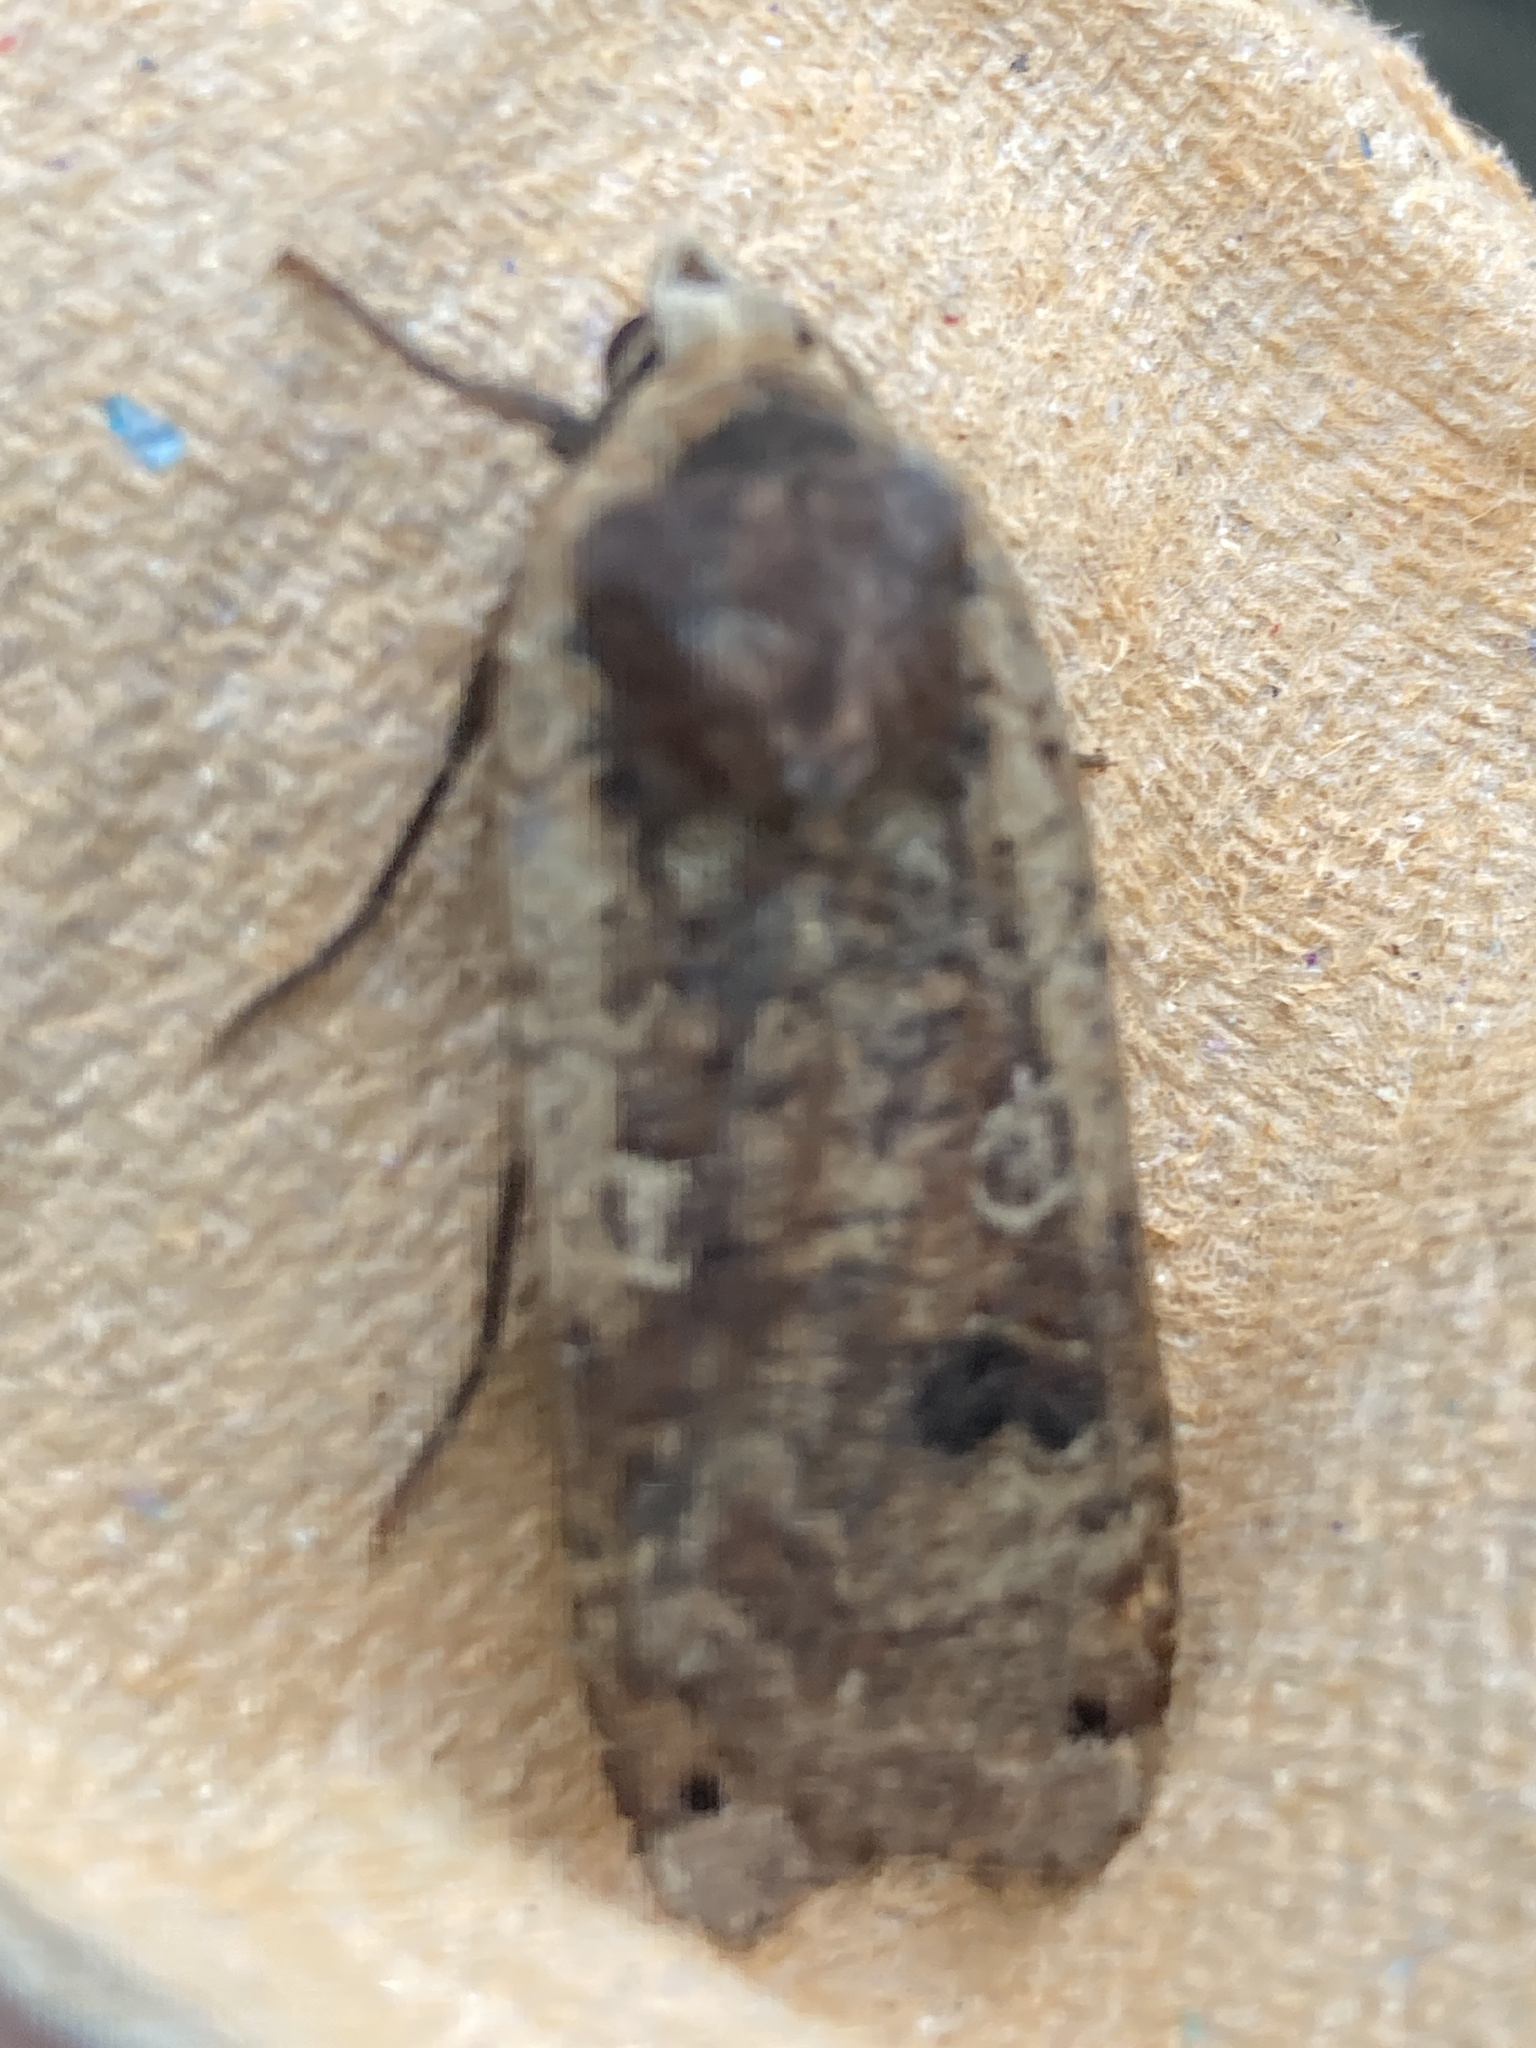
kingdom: Animalia
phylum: Arthropoda
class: Insecta
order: Lepidoptera
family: Noctuidae
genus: Noctua
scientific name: Noctua pronuba
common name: Large yellow underwing
